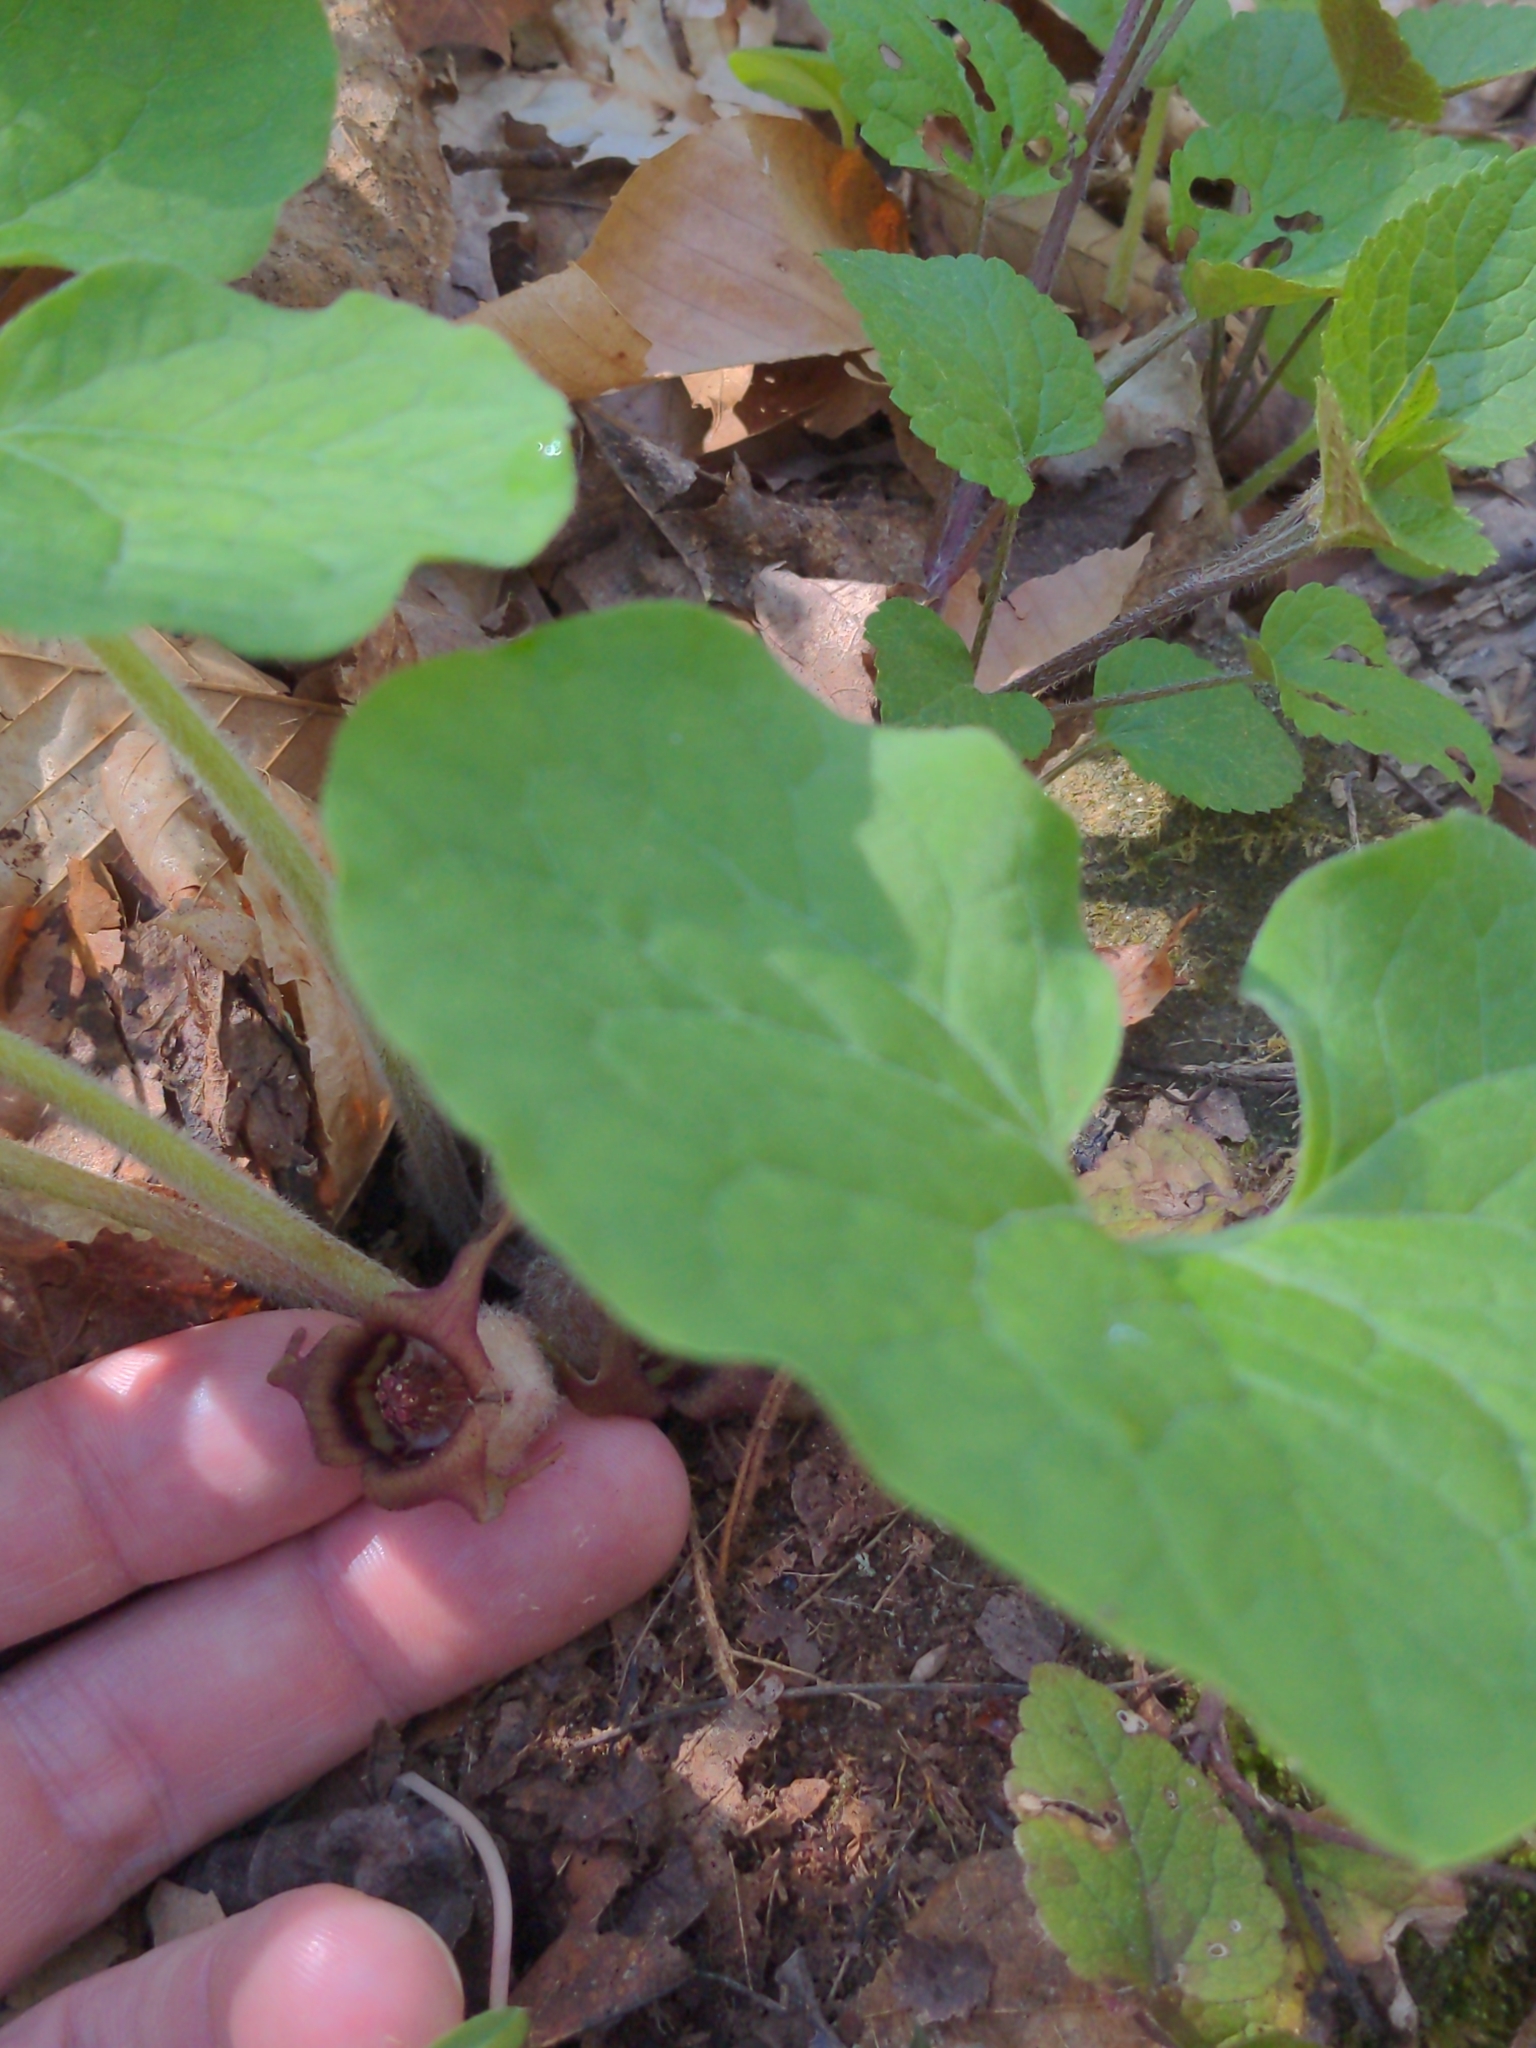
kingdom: Plantae
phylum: Tracheophyta
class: Magnoliopsida
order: Piperales
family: Aristolochiaceae
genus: Asarum
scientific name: Asarum canadense
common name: Wild ginger
